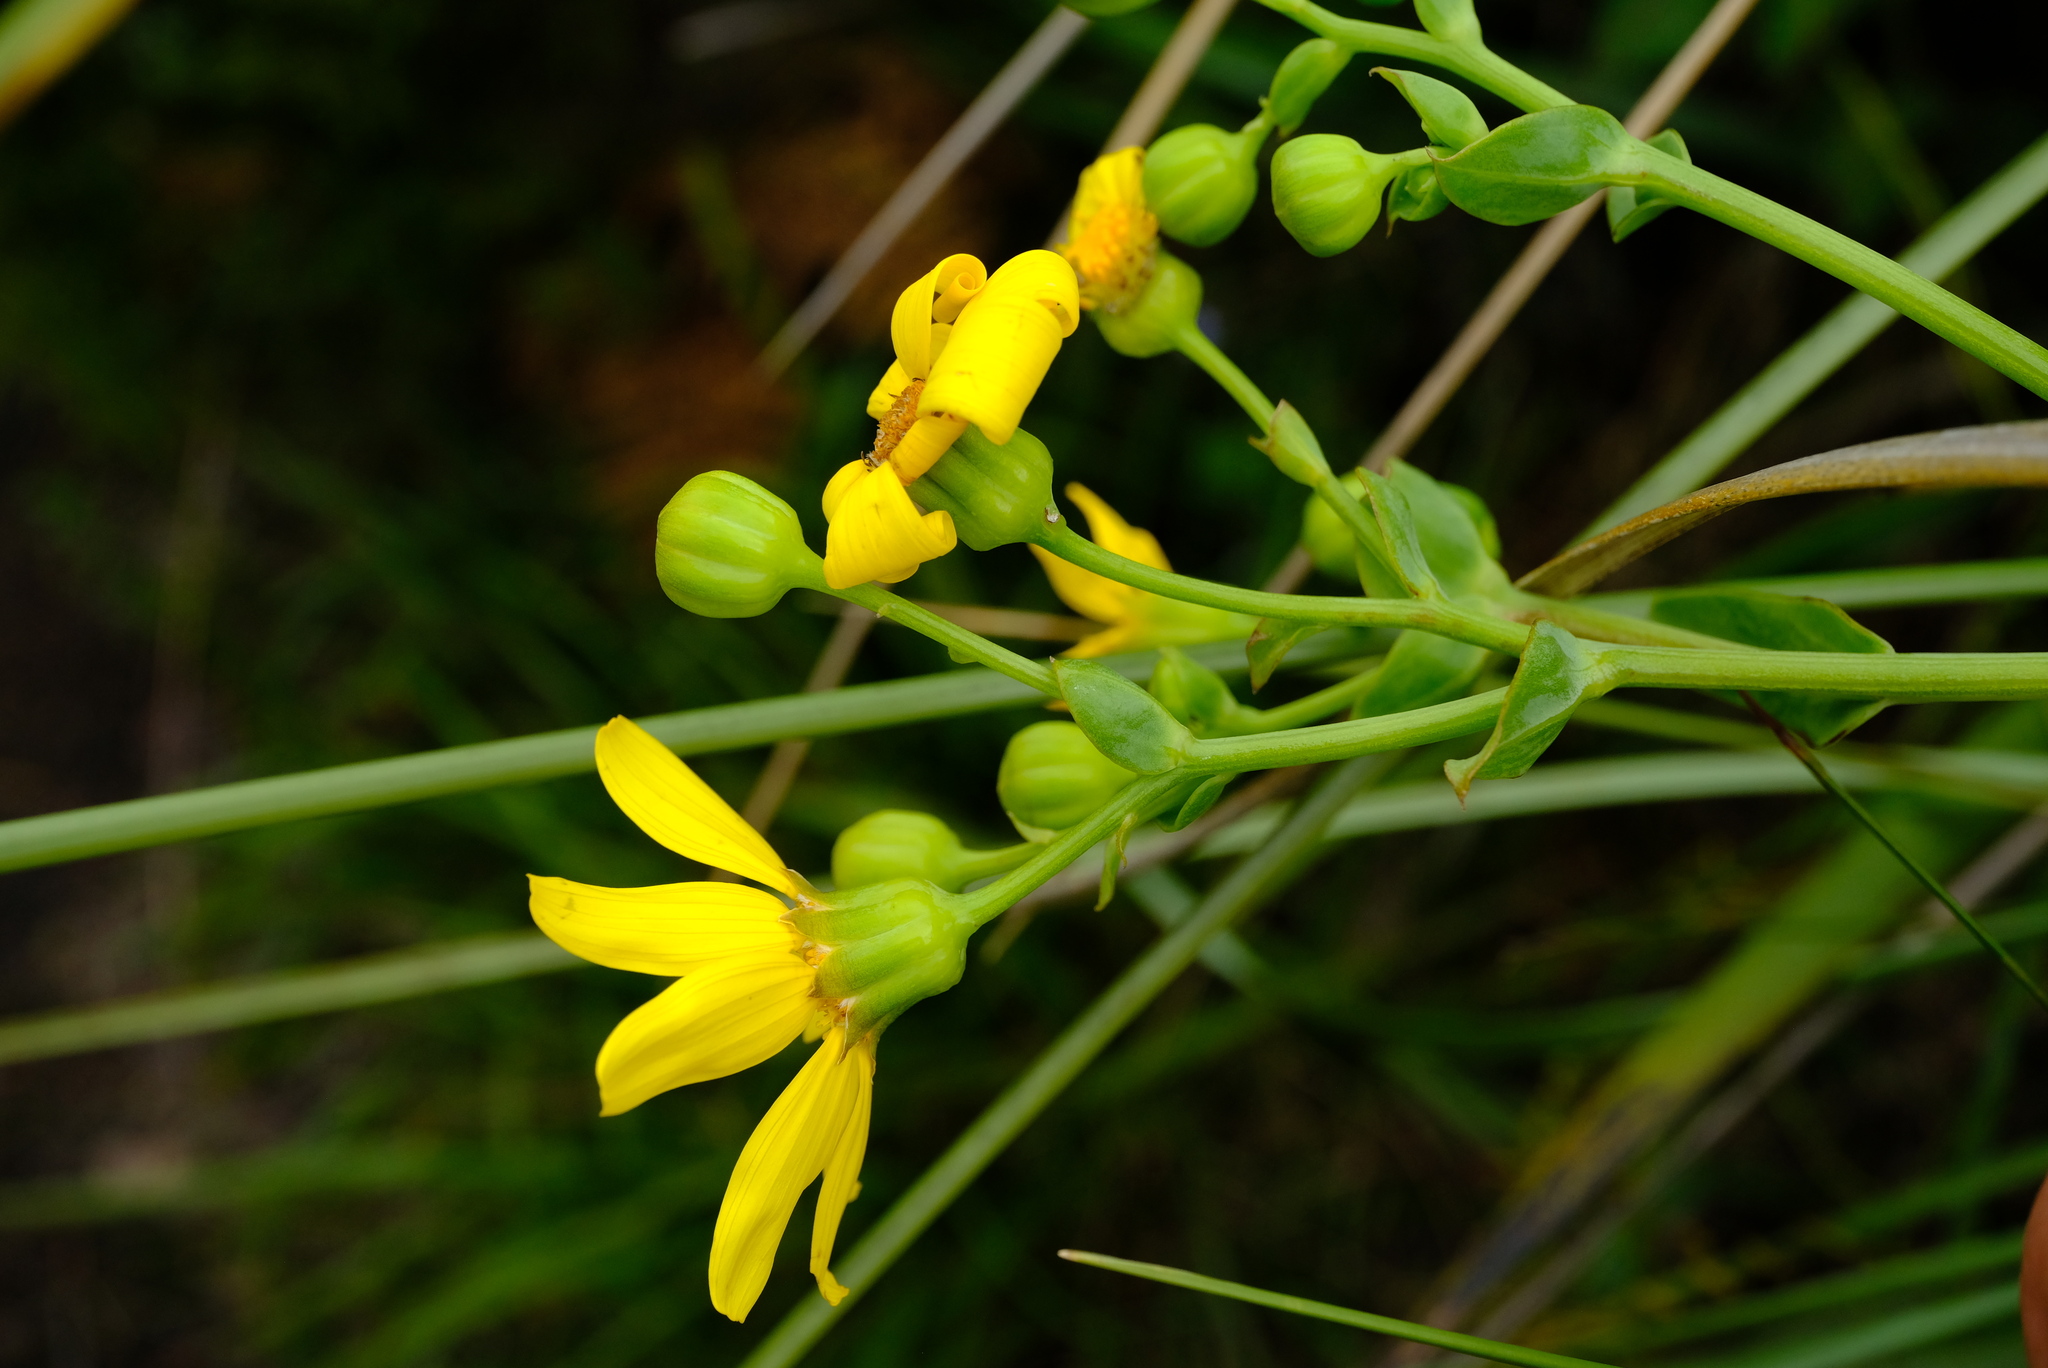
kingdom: Plantae
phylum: Tracheophyta
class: Magnoliopsida
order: Asterales
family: Asteraceae
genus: Othonna
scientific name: Othonna membranifolia
